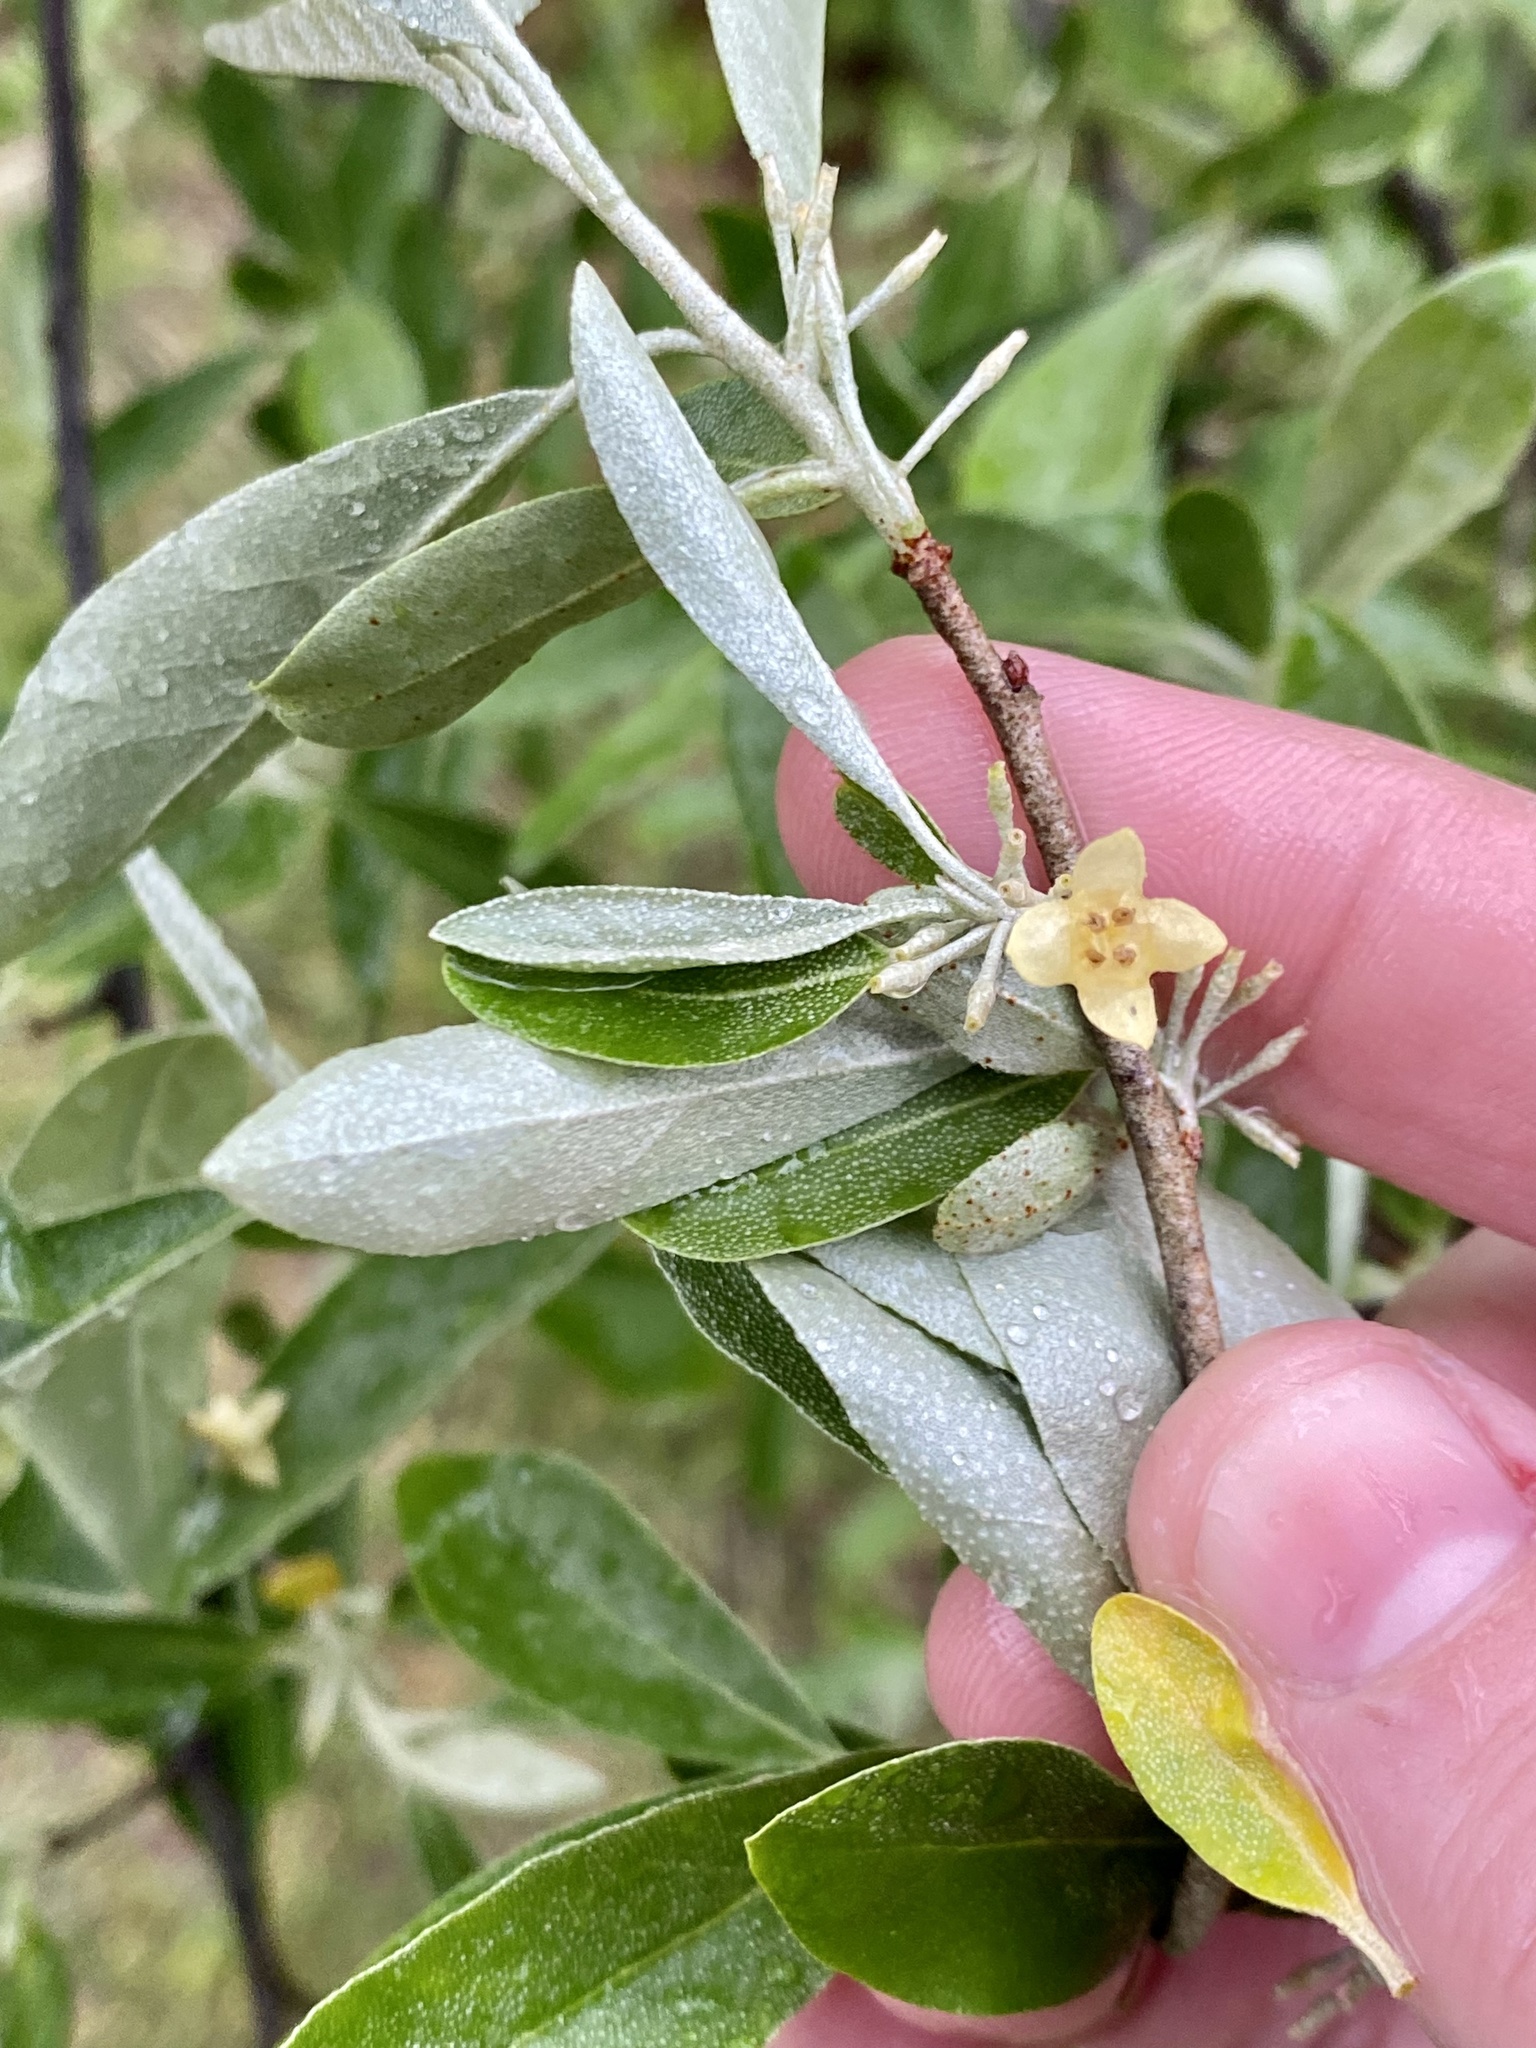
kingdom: Plantae
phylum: Tracheophyta
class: Magnoliopsida
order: Rosales
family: Elaeagnaceae
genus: Elaeagnus
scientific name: Elaeagnus umbellata
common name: Autumn olive
